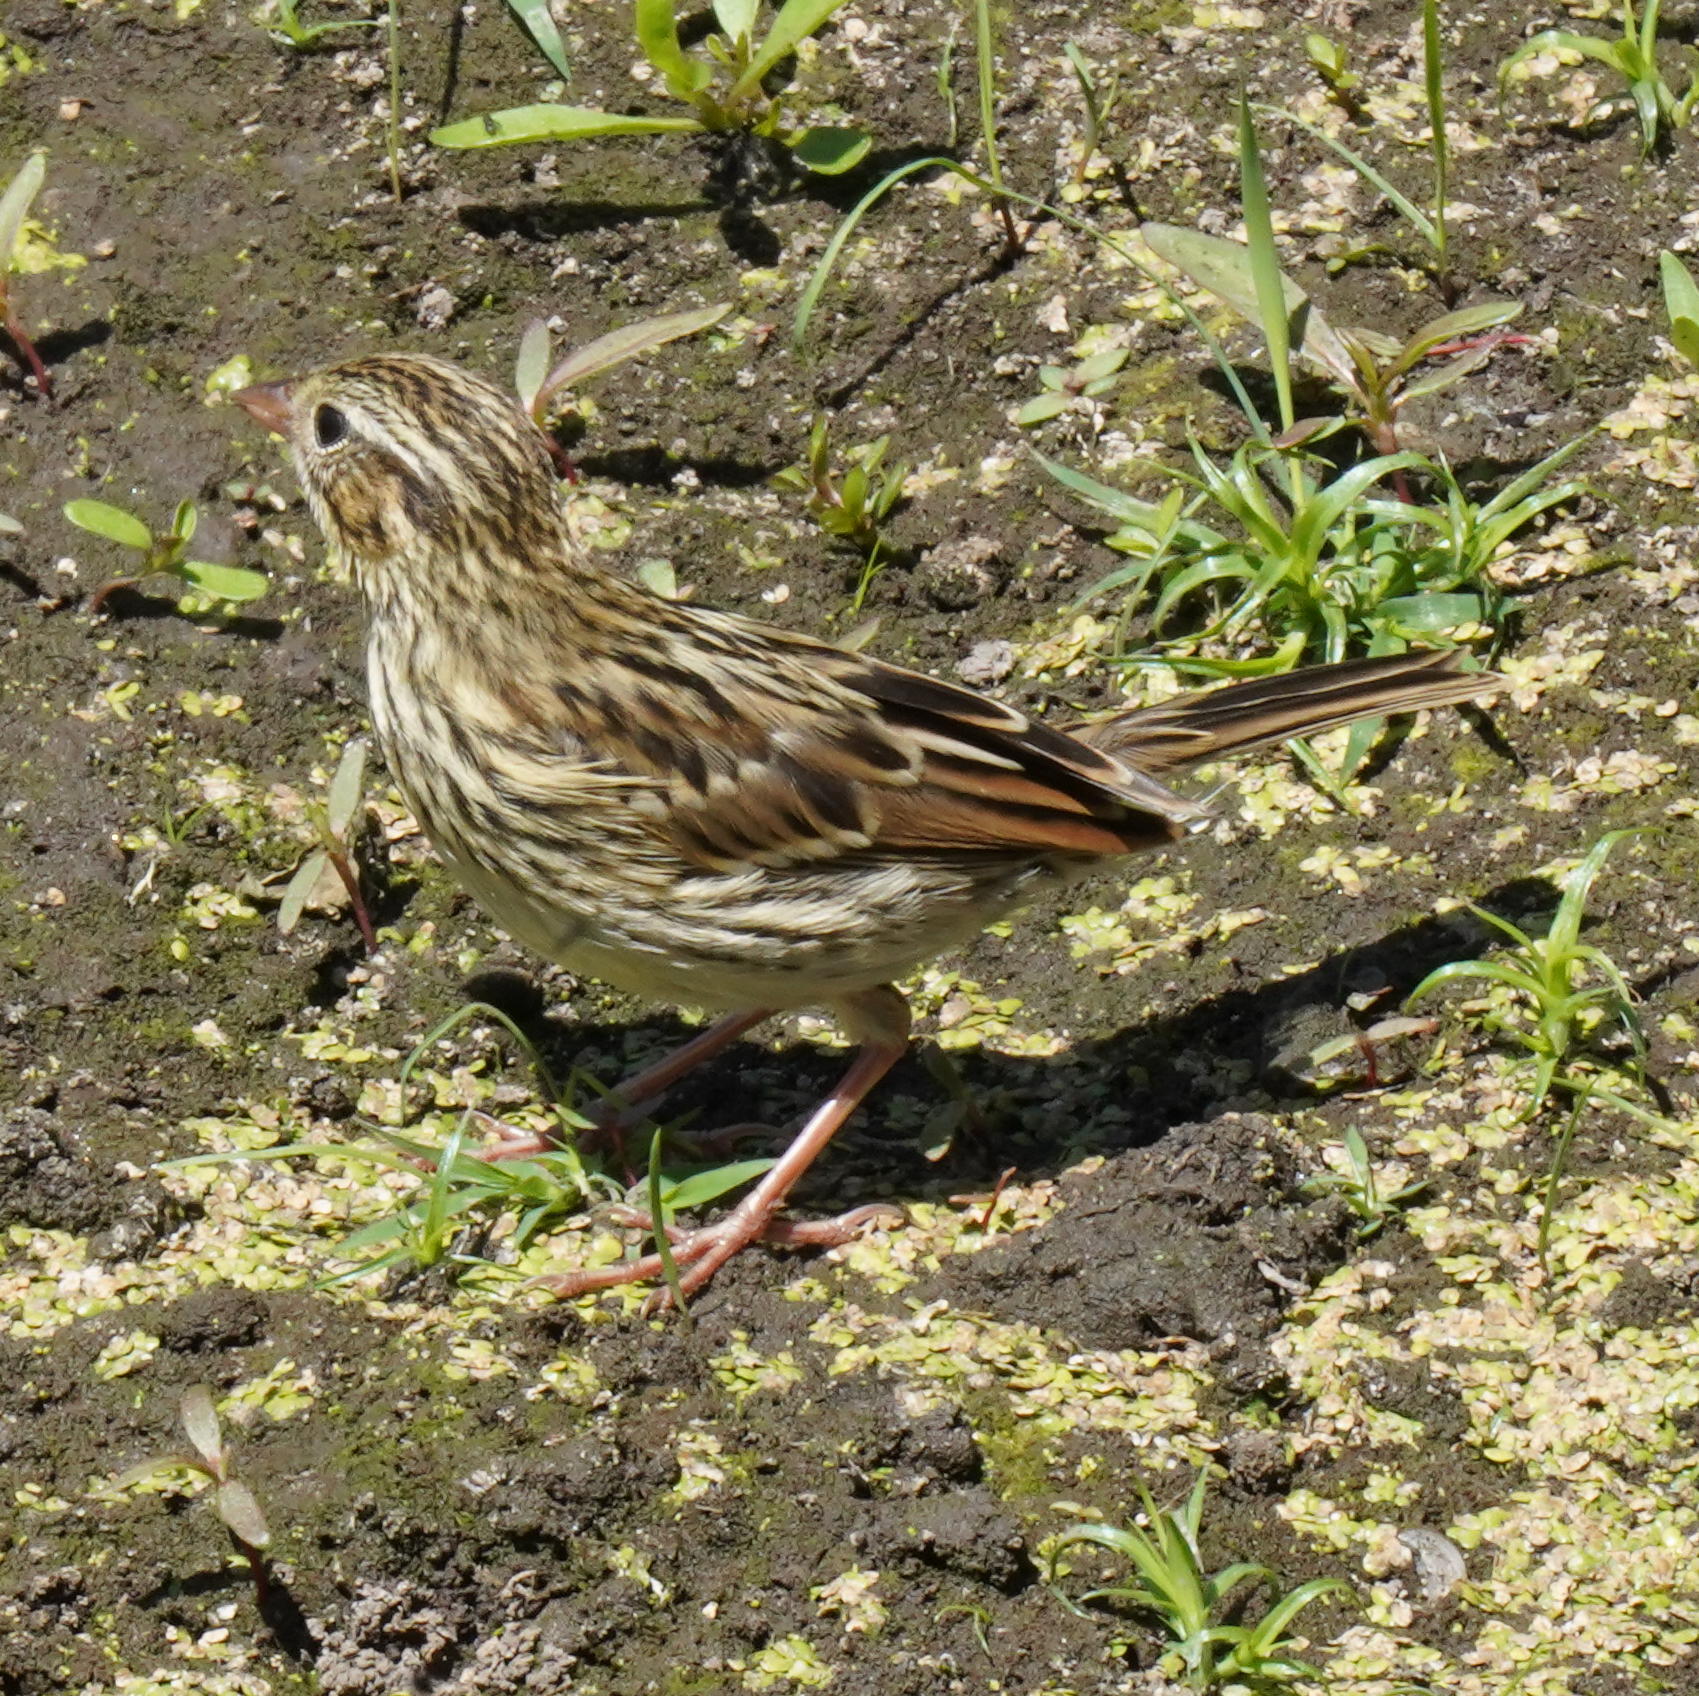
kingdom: Animalia
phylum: Chordata
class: Aves
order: Passeriformes
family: Passerellidae
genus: Passerculus
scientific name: Passerculus sandwichensis
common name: Savannah sparrow
